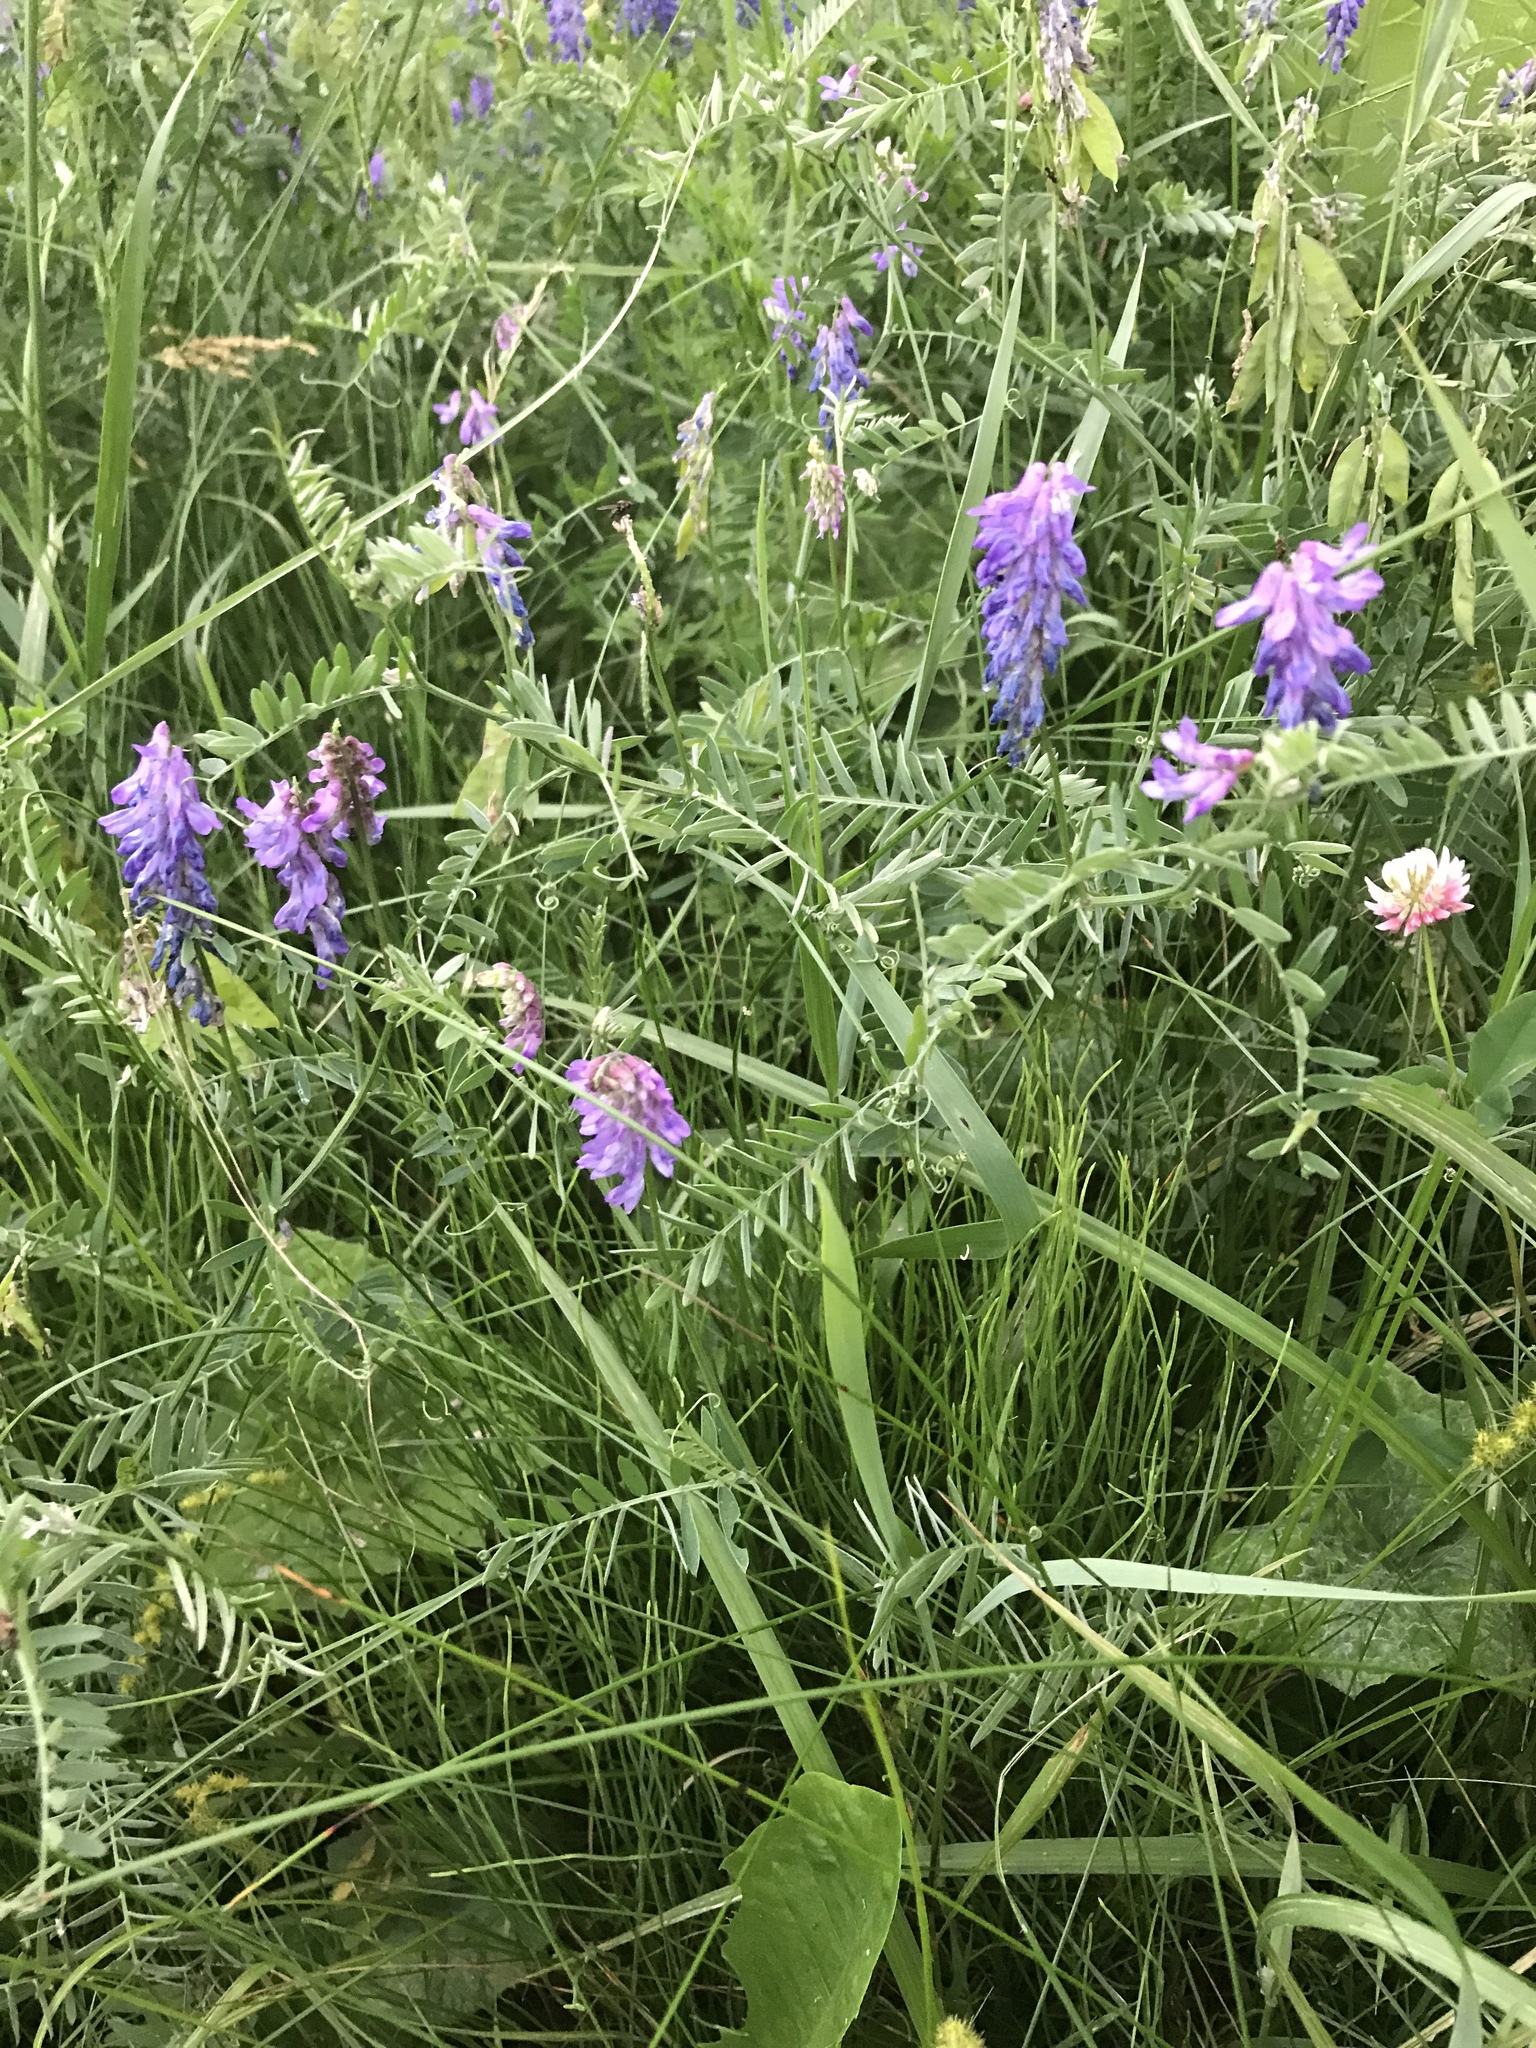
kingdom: Plantae
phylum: Tracheophyta
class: Magnoliopsida
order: Fabales
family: Fabaceae
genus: Vicia
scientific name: Vicia cracca
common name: Bird vetch
